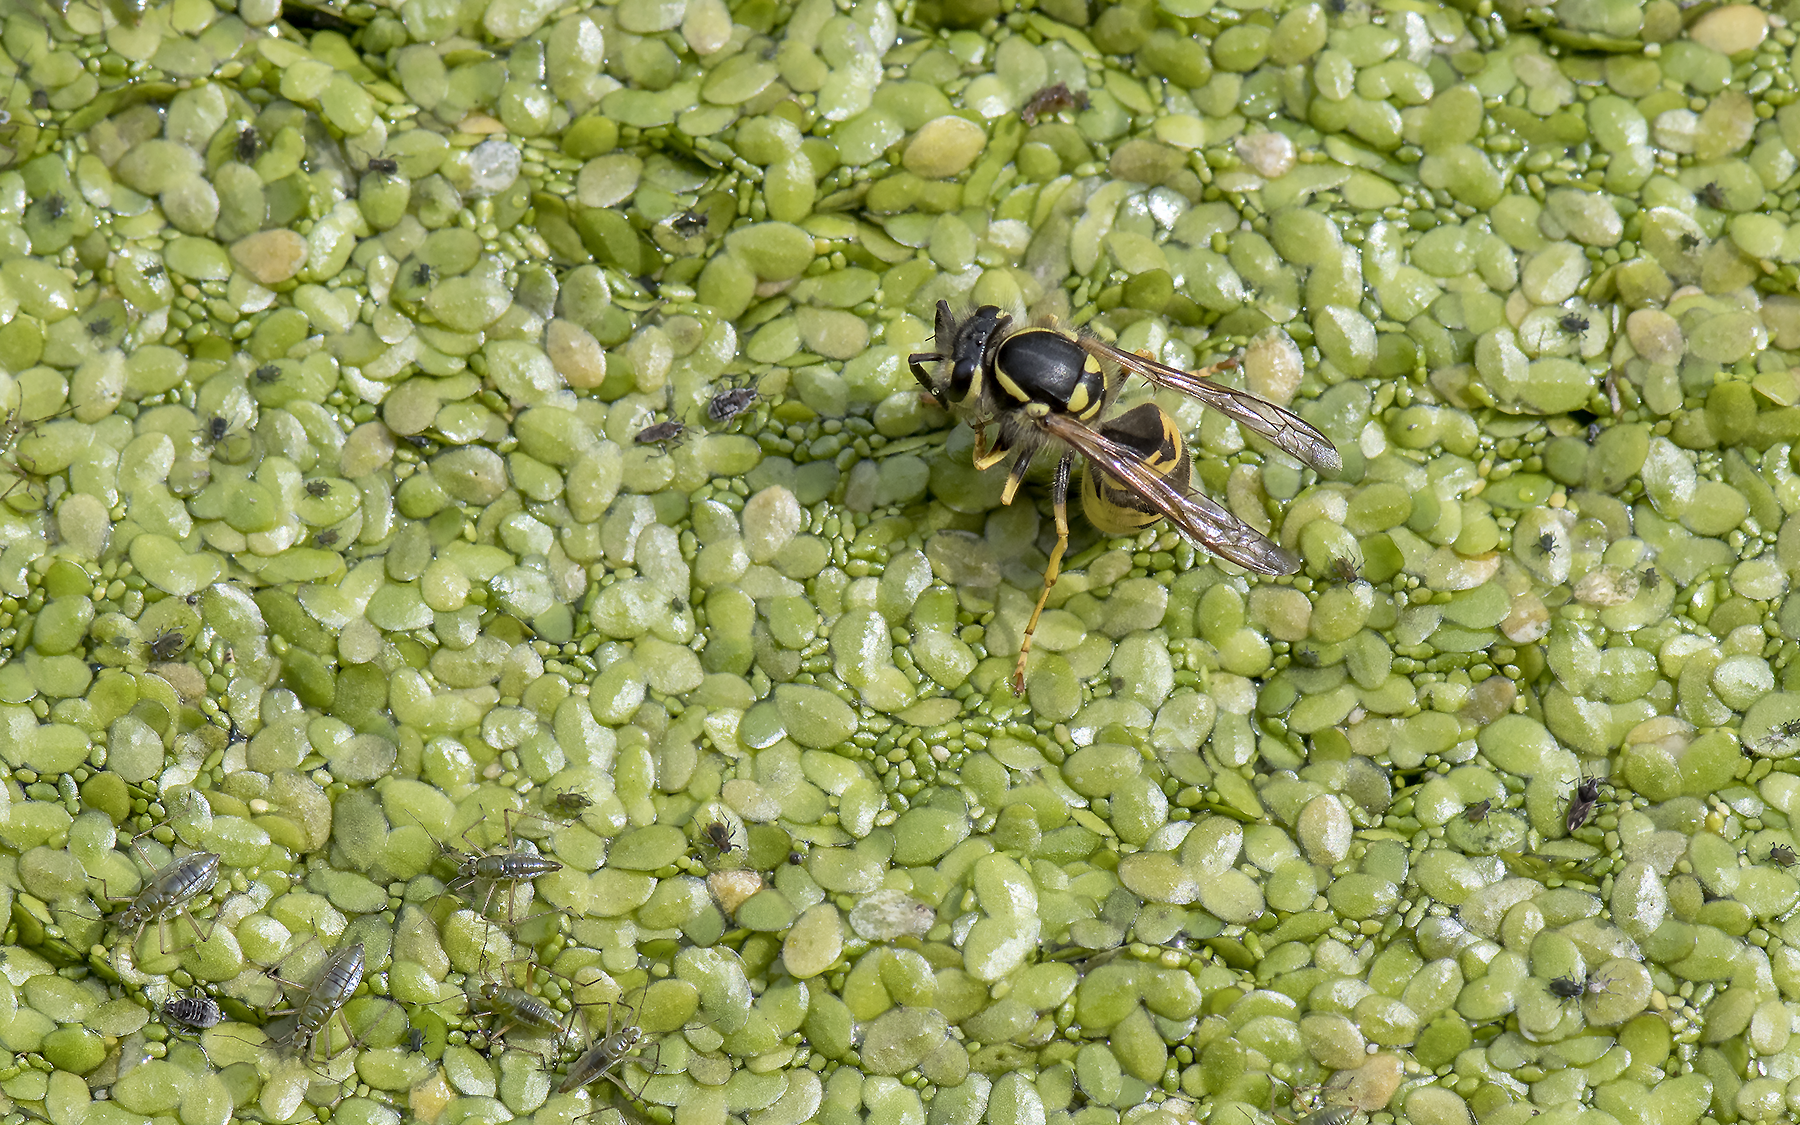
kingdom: Animalia
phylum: Arthropoda
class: Insecta
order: Hymenoptera
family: Vespidae
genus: Vespula
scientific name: Vespula germanica
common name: German wasp
